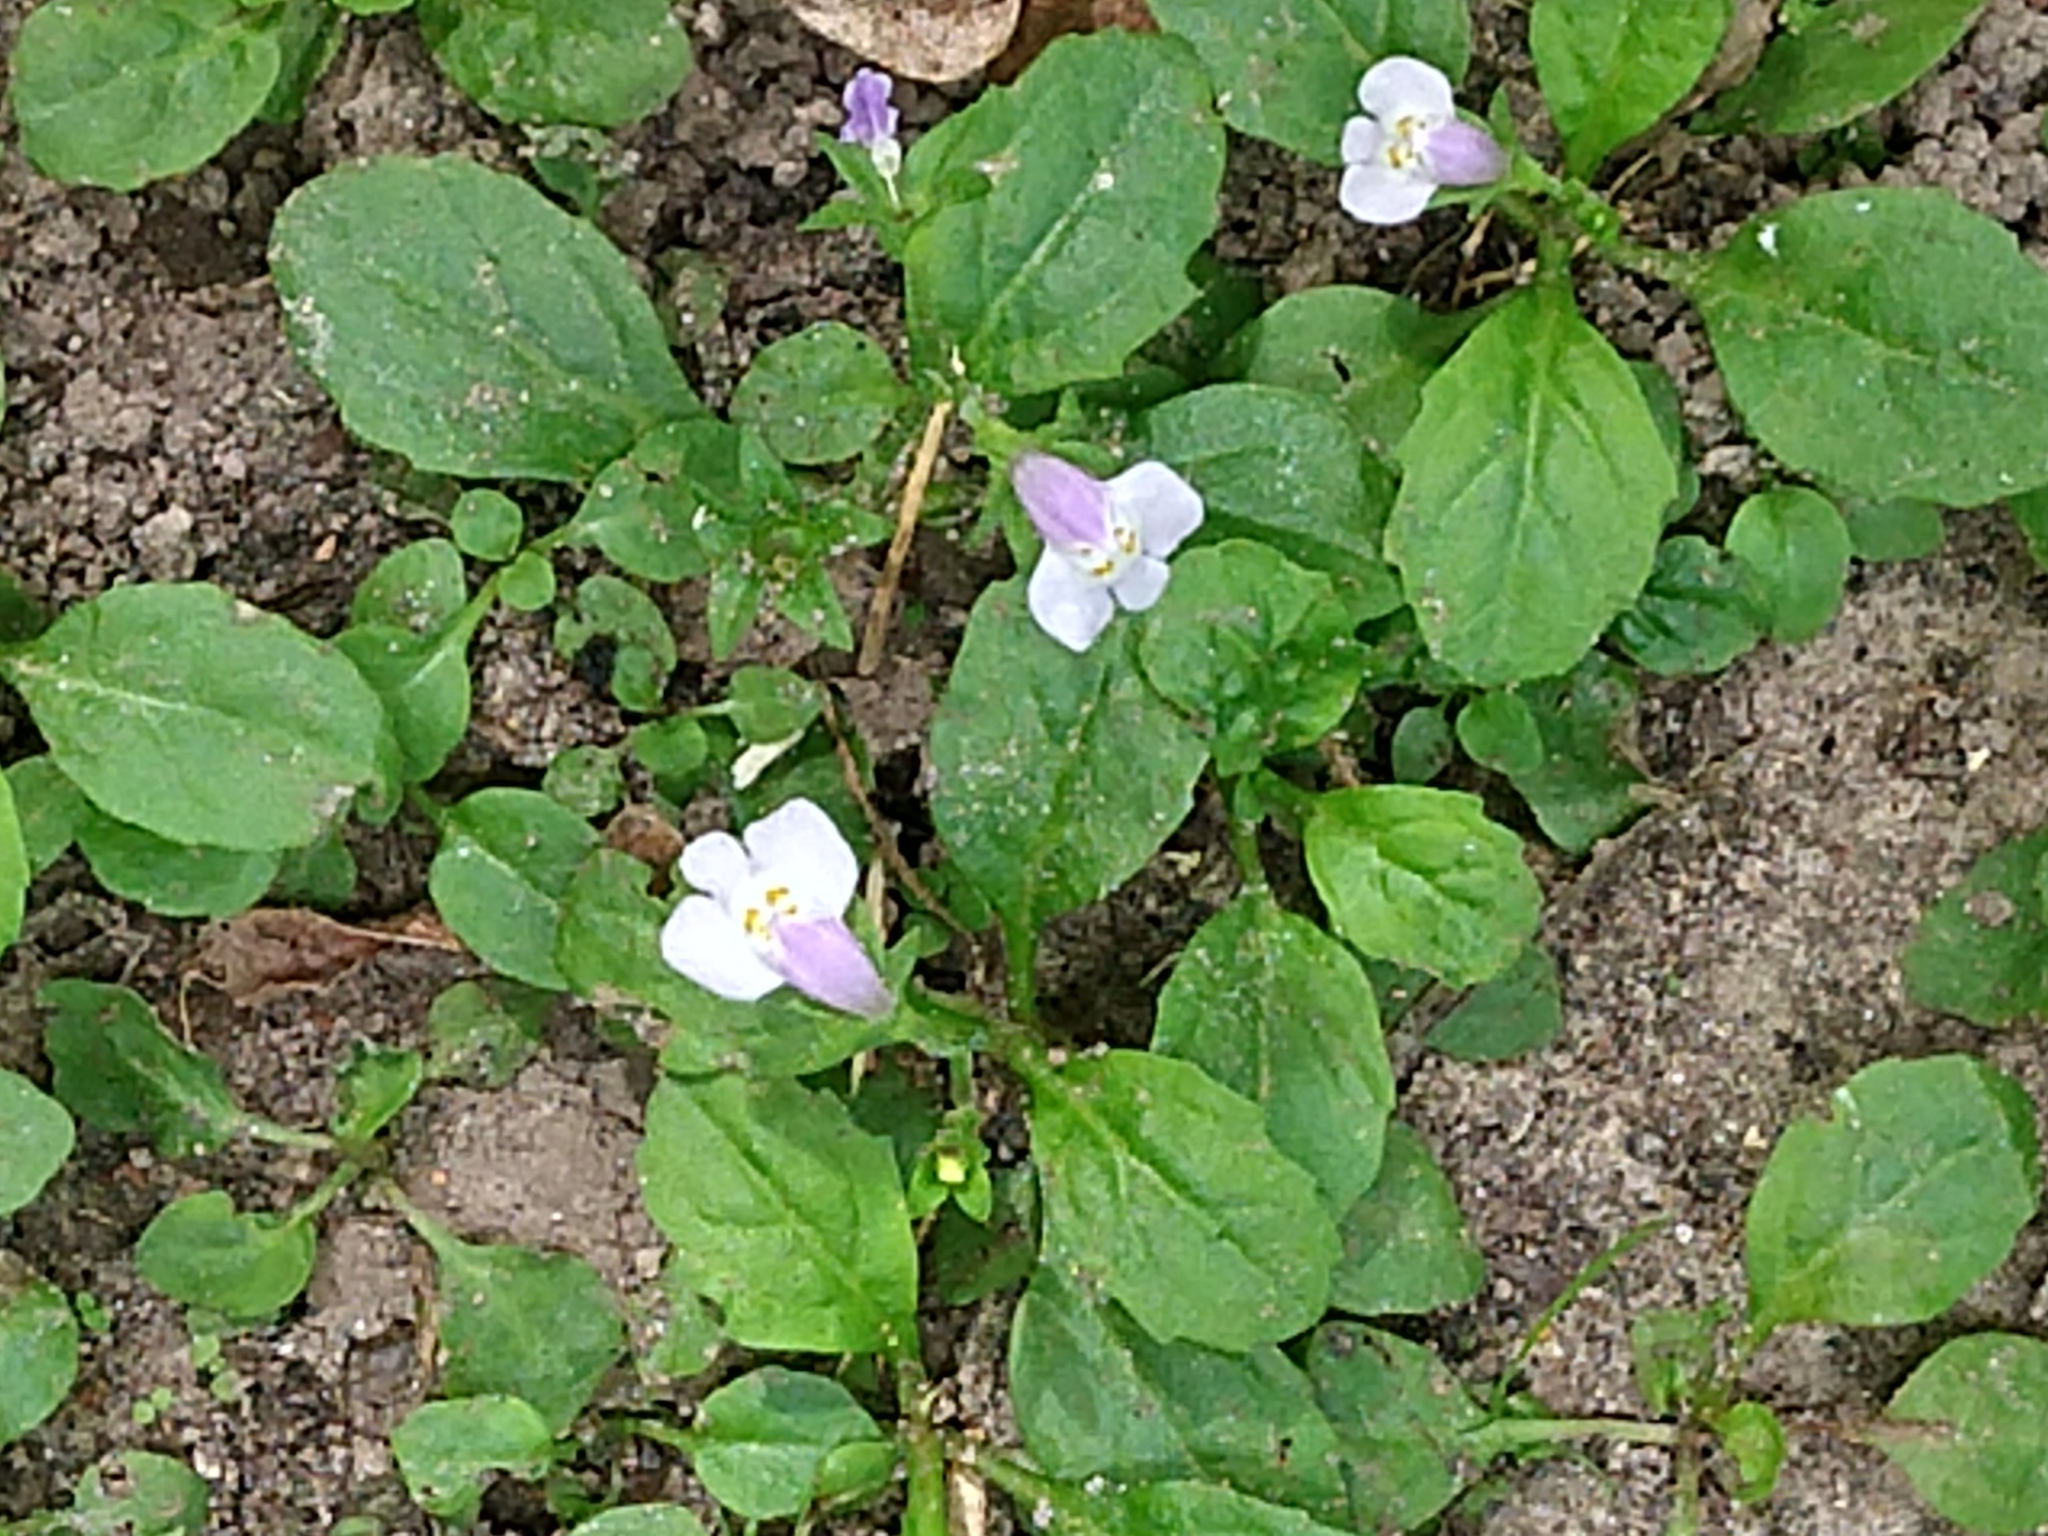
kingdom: Plantae
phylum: Tracheophyta
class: Magnoliopsida
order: Lamiales
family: Mazaceae
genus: Mazus
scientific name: Mazus pumilus
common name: Japanese mazus
